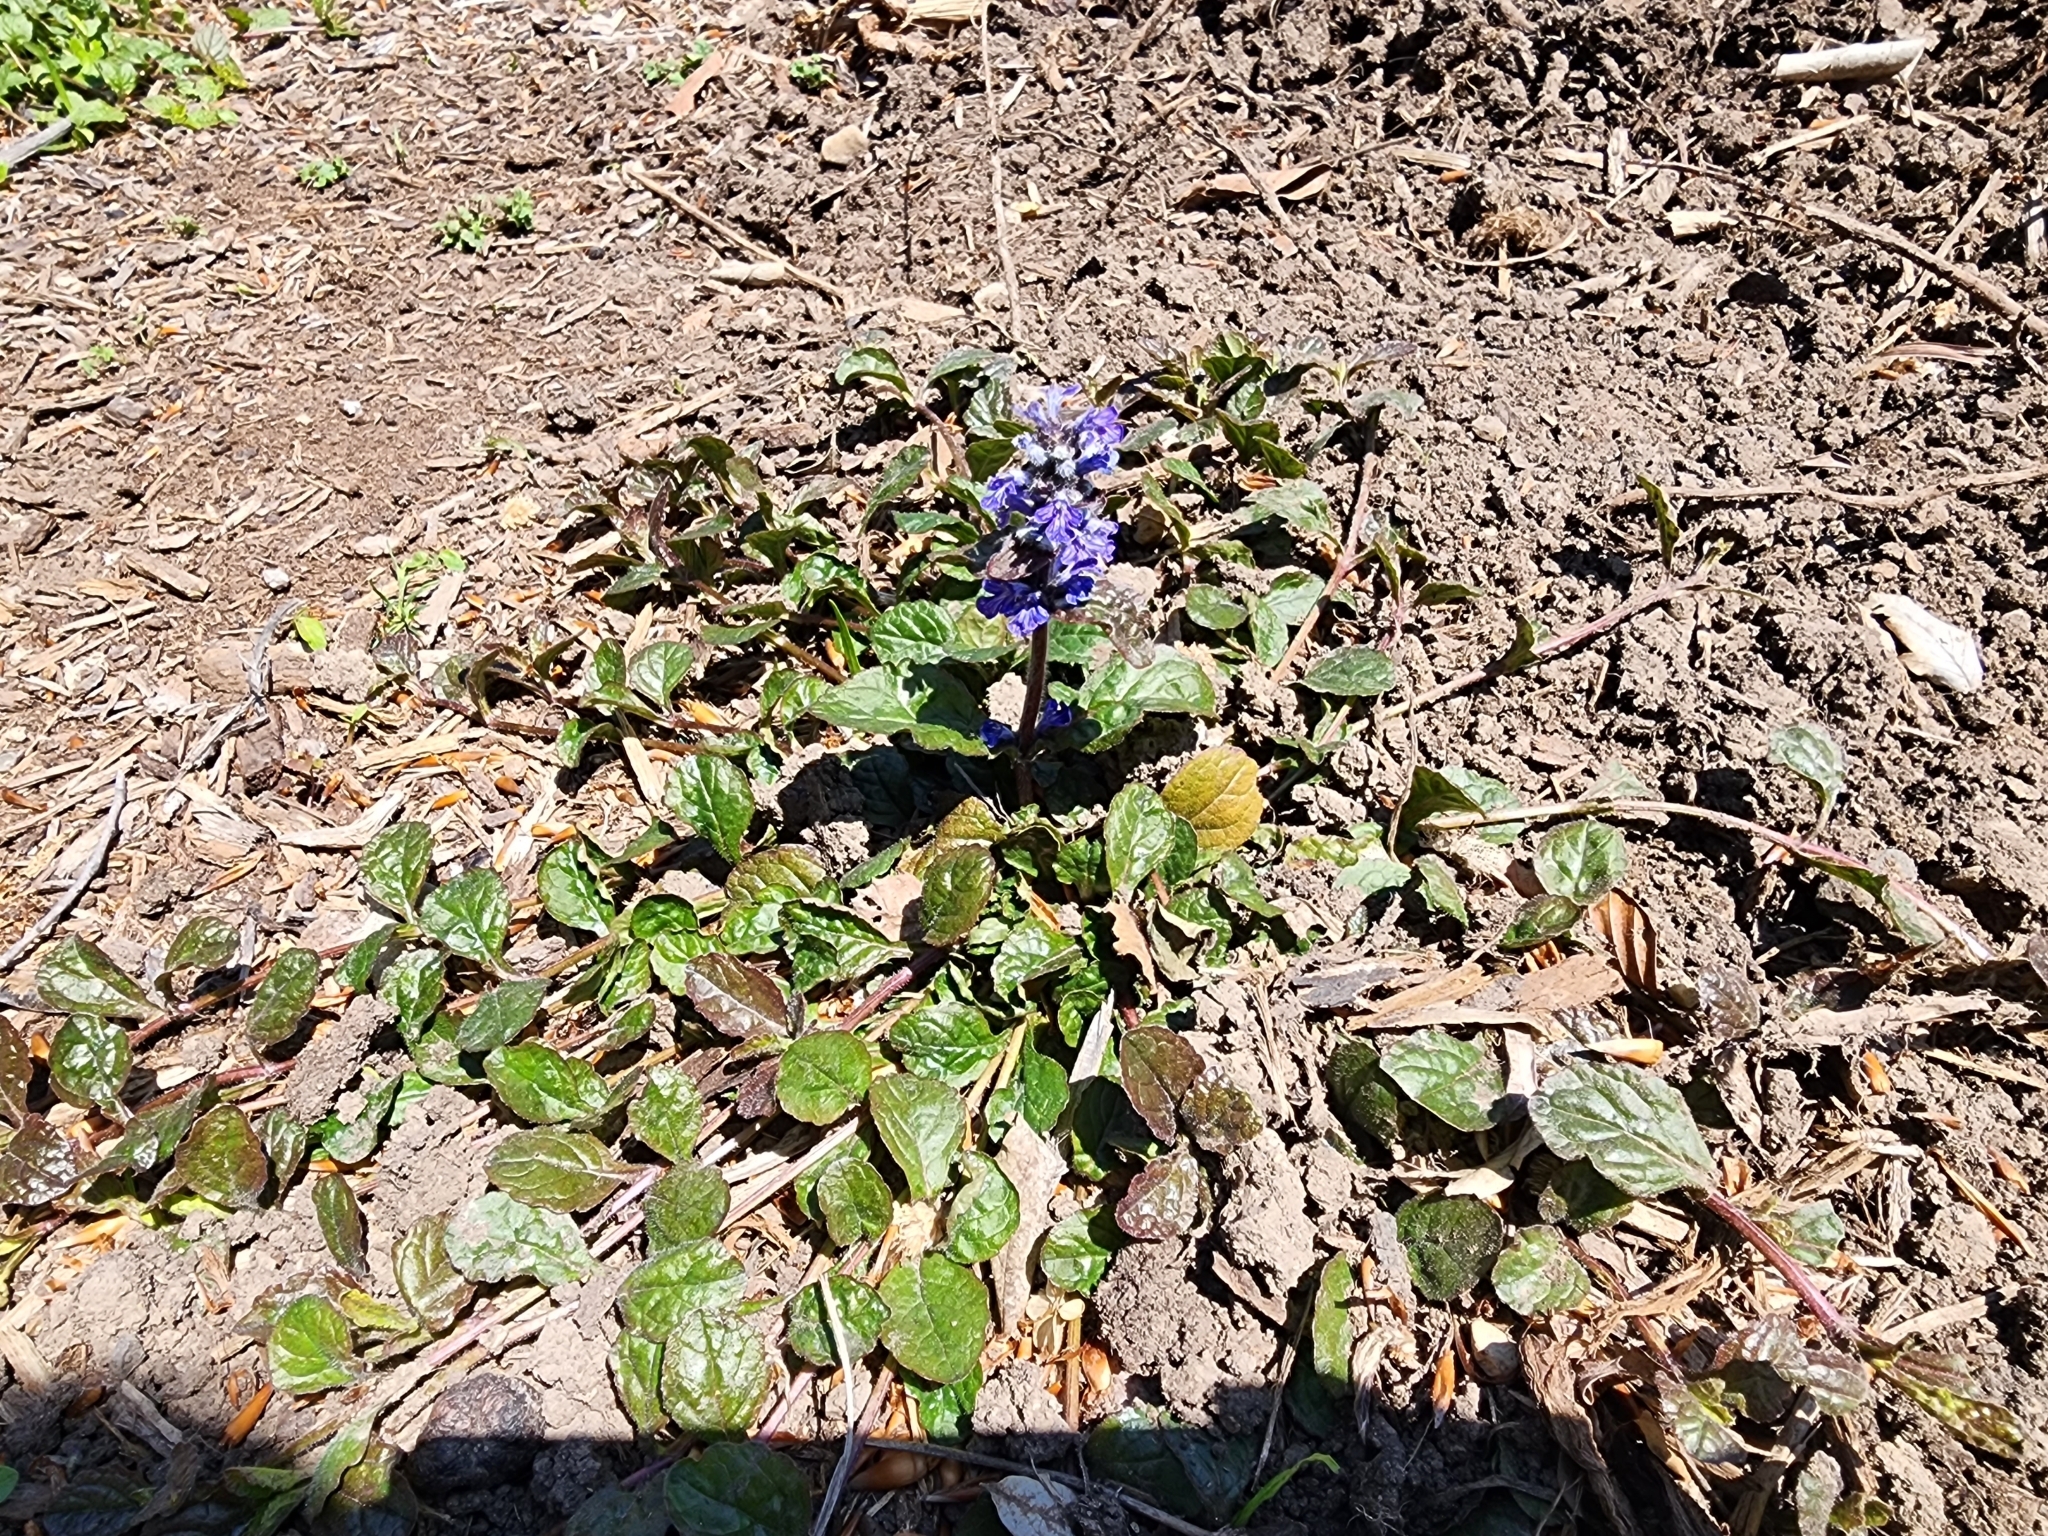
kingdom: Plantae
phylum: Tracheophyta
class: Magnoliopsida
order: Lamiales
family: Lamiaceae
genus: Ajuga
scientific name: Ajuga reptans
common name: Bugle
